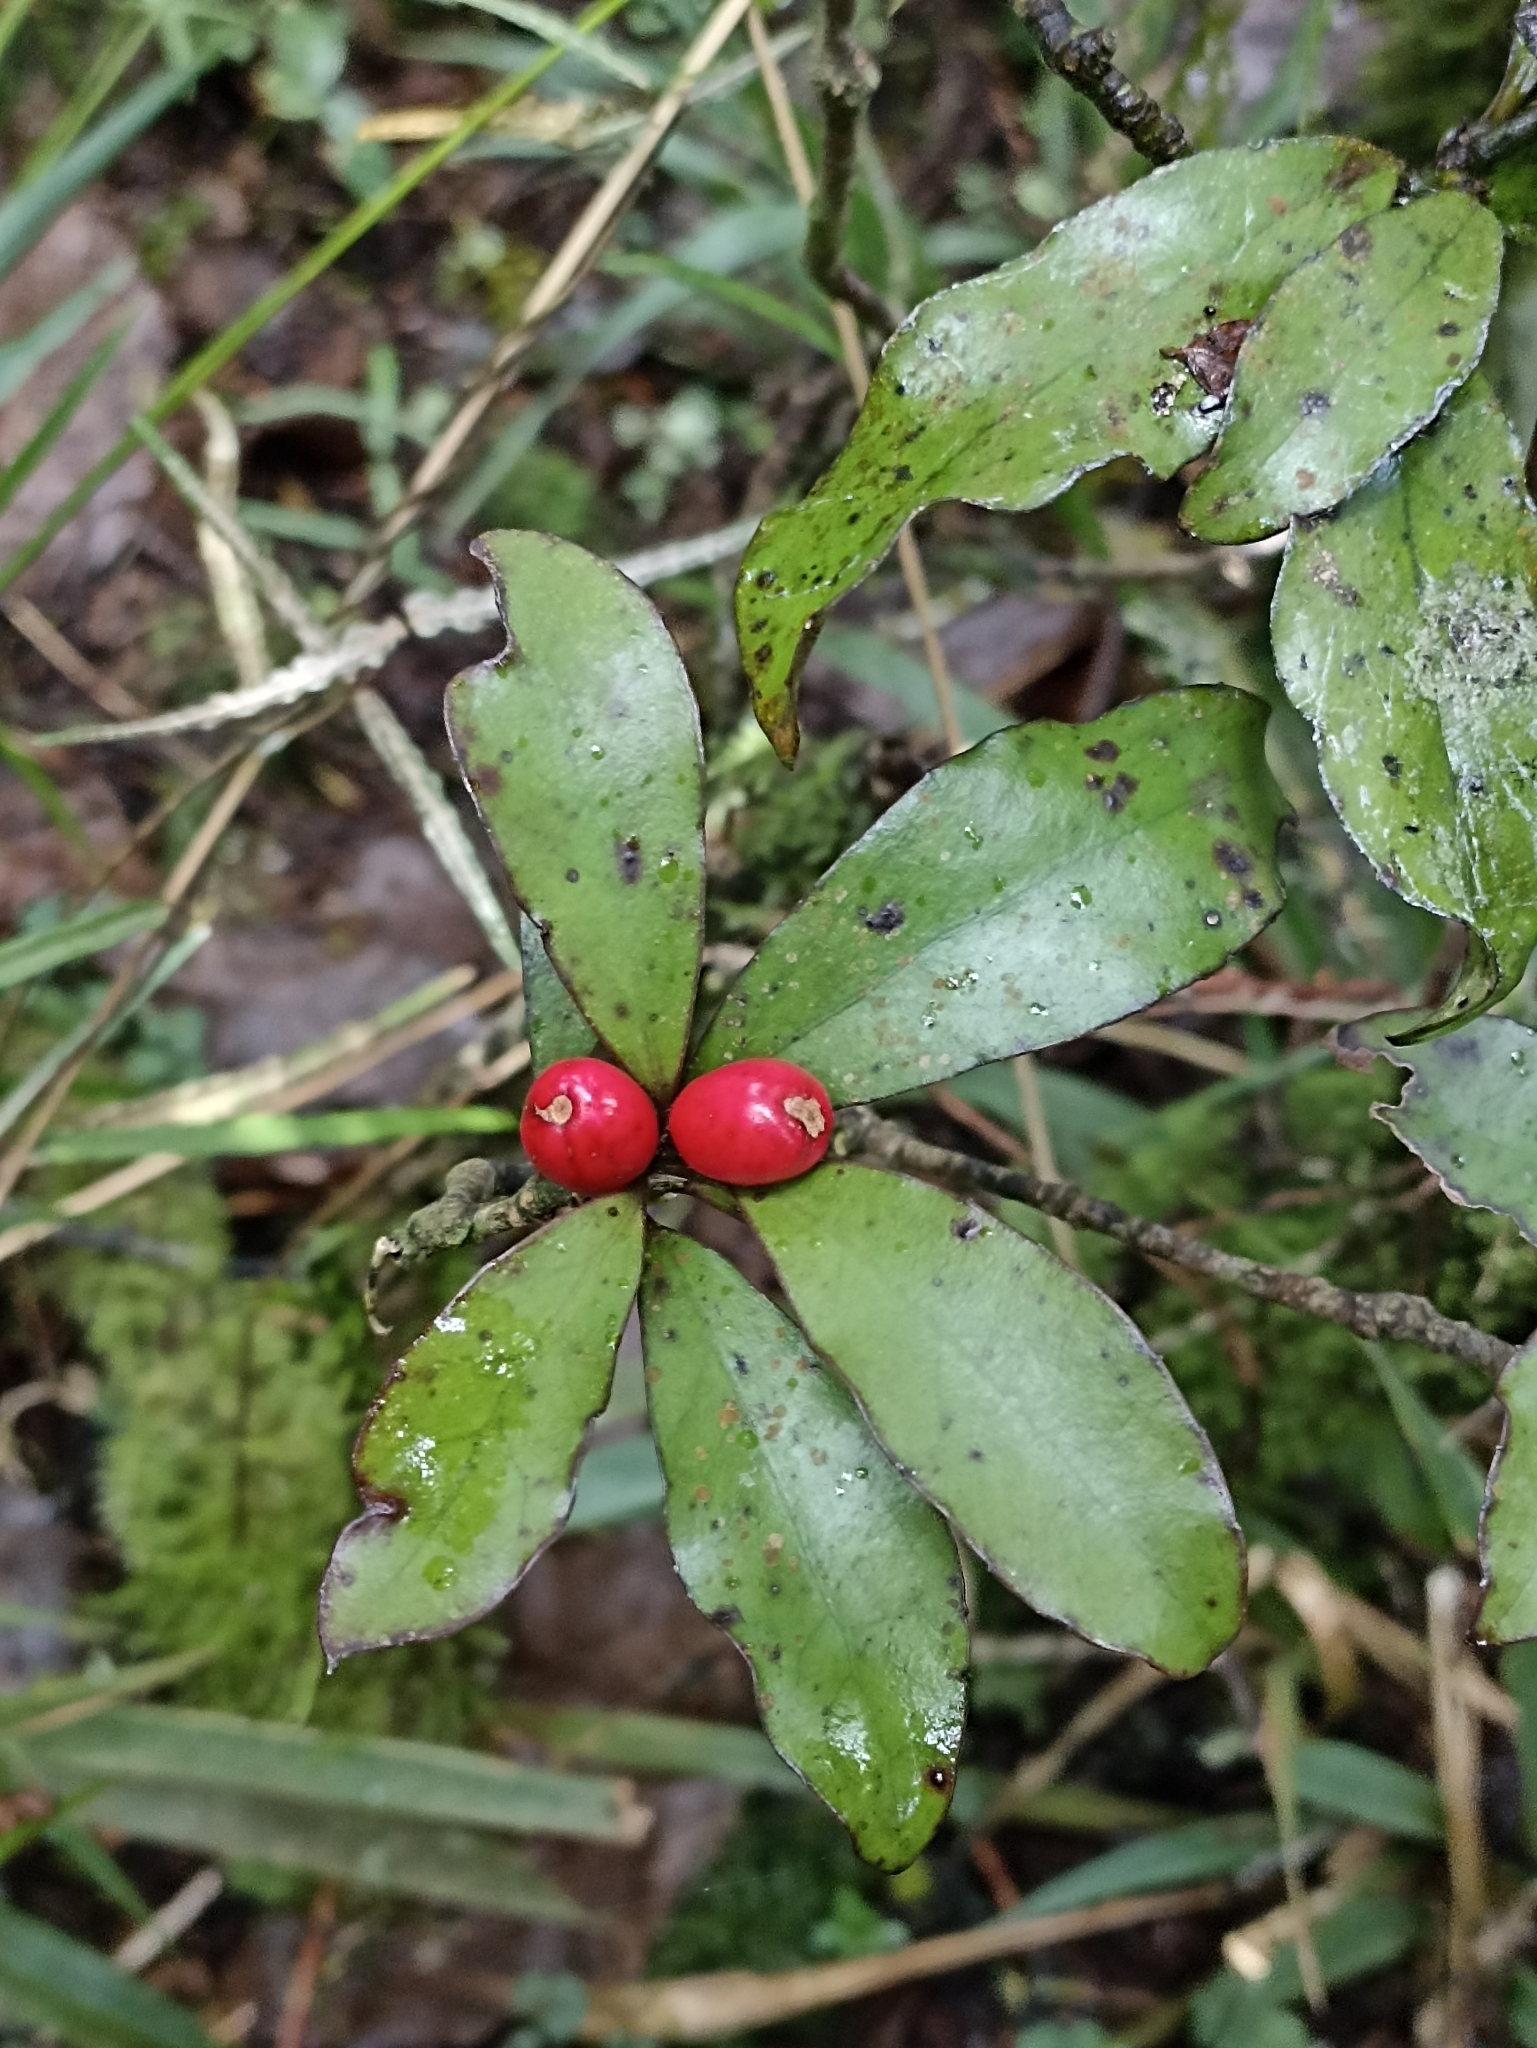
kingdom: Plantae
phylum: Tracheophyta
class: Magnoliopsida
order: Asterales
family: Alseuosmiaceae
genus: Alseuosmia
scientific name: Alseuosmia pusilla
